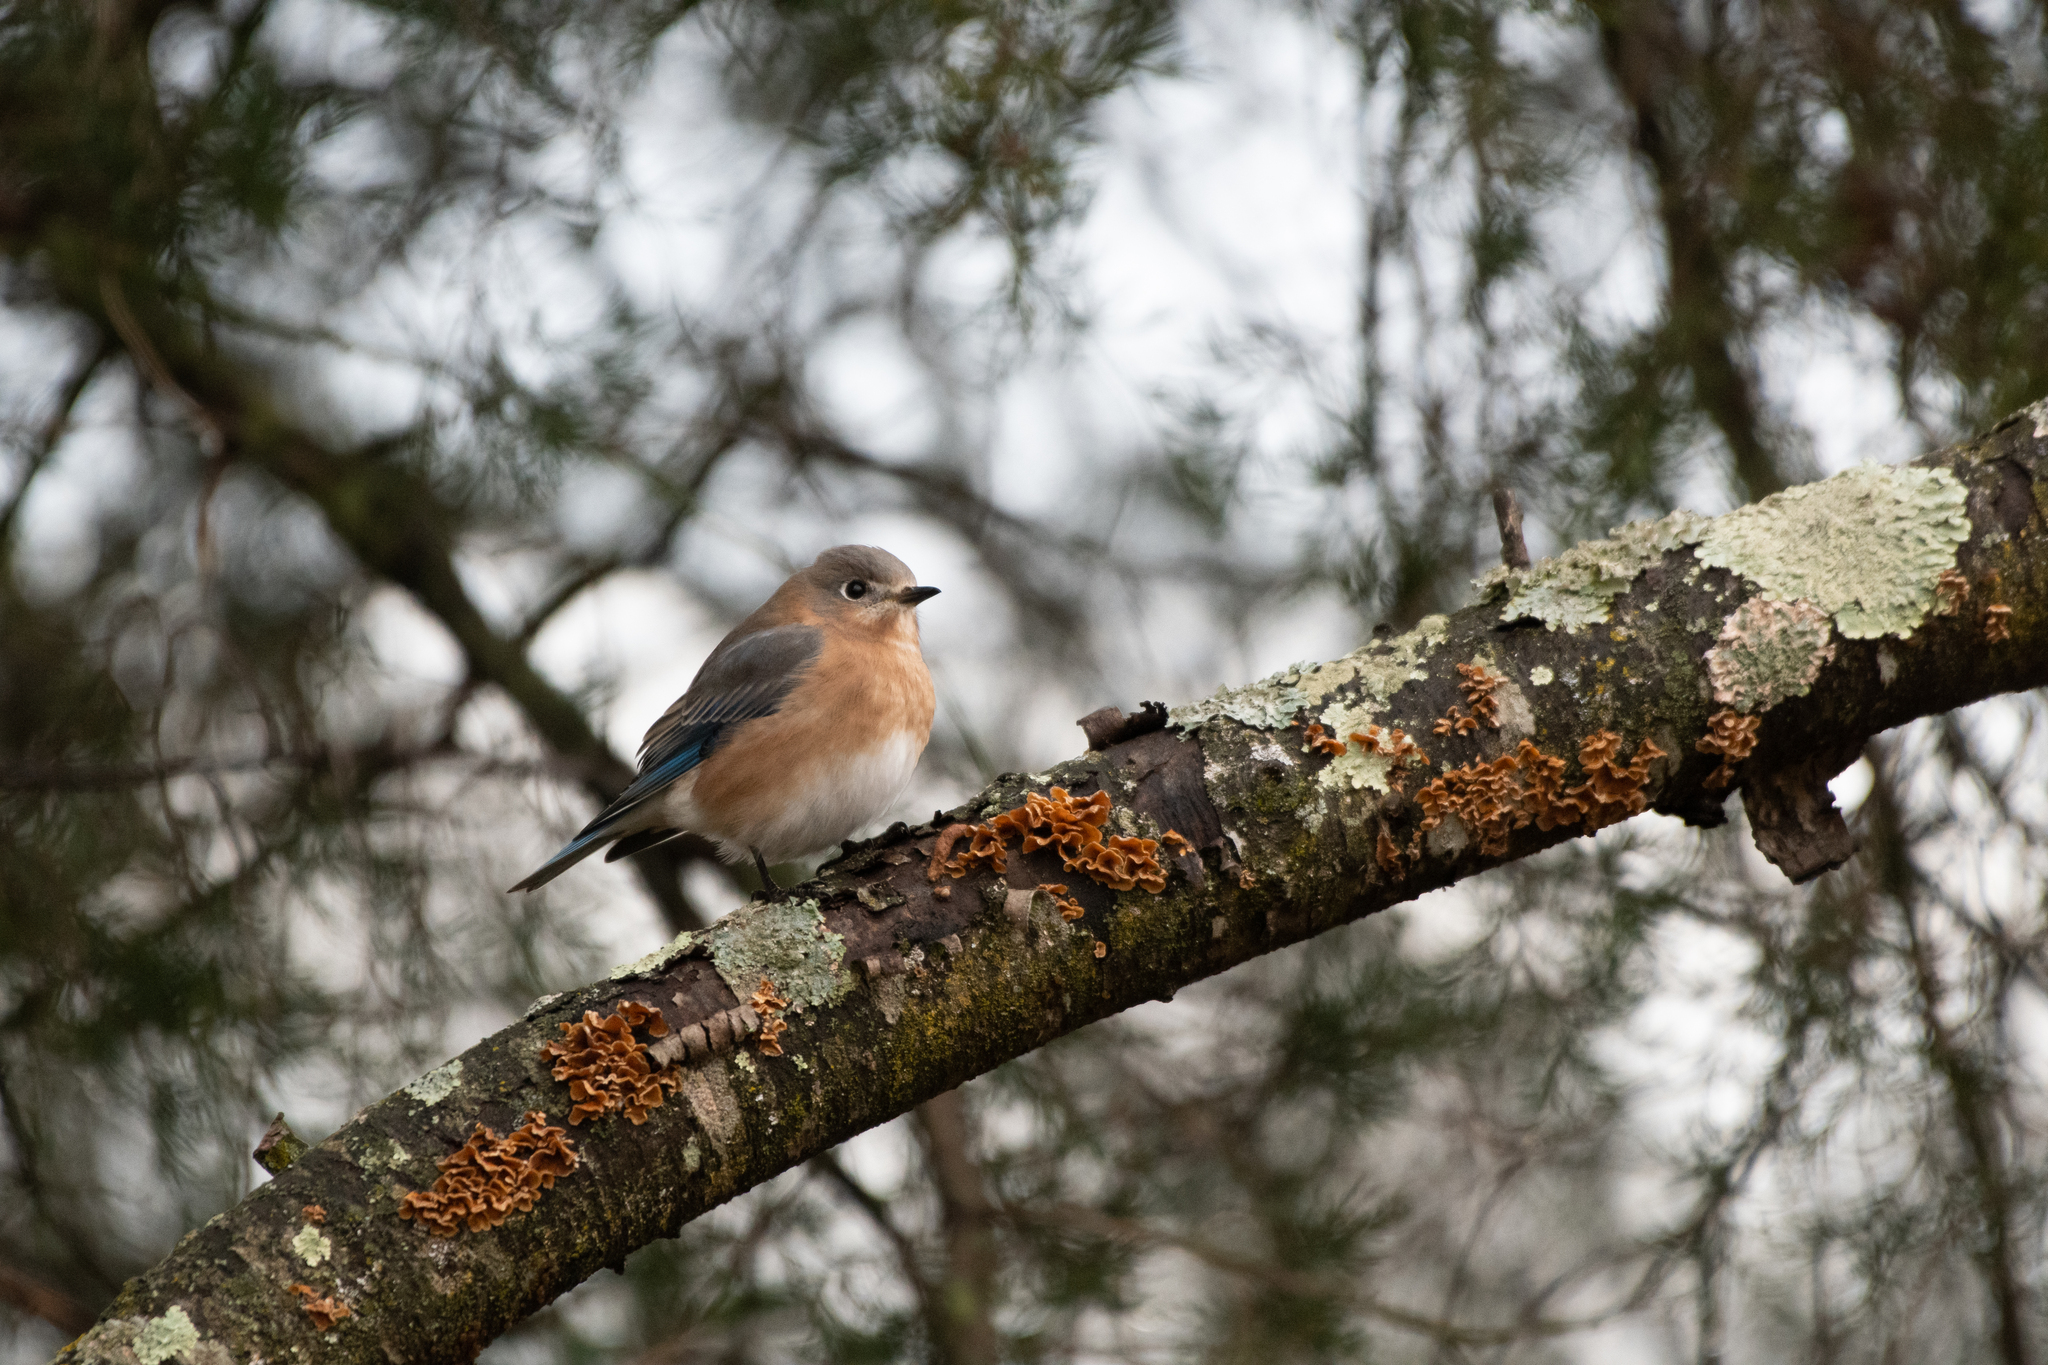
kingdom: Animalia
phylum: Chordata
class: Aves
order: Passeriformes
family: Turdidae
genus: Sialia
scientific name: Sialia sialis
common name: Eastern bluebird
